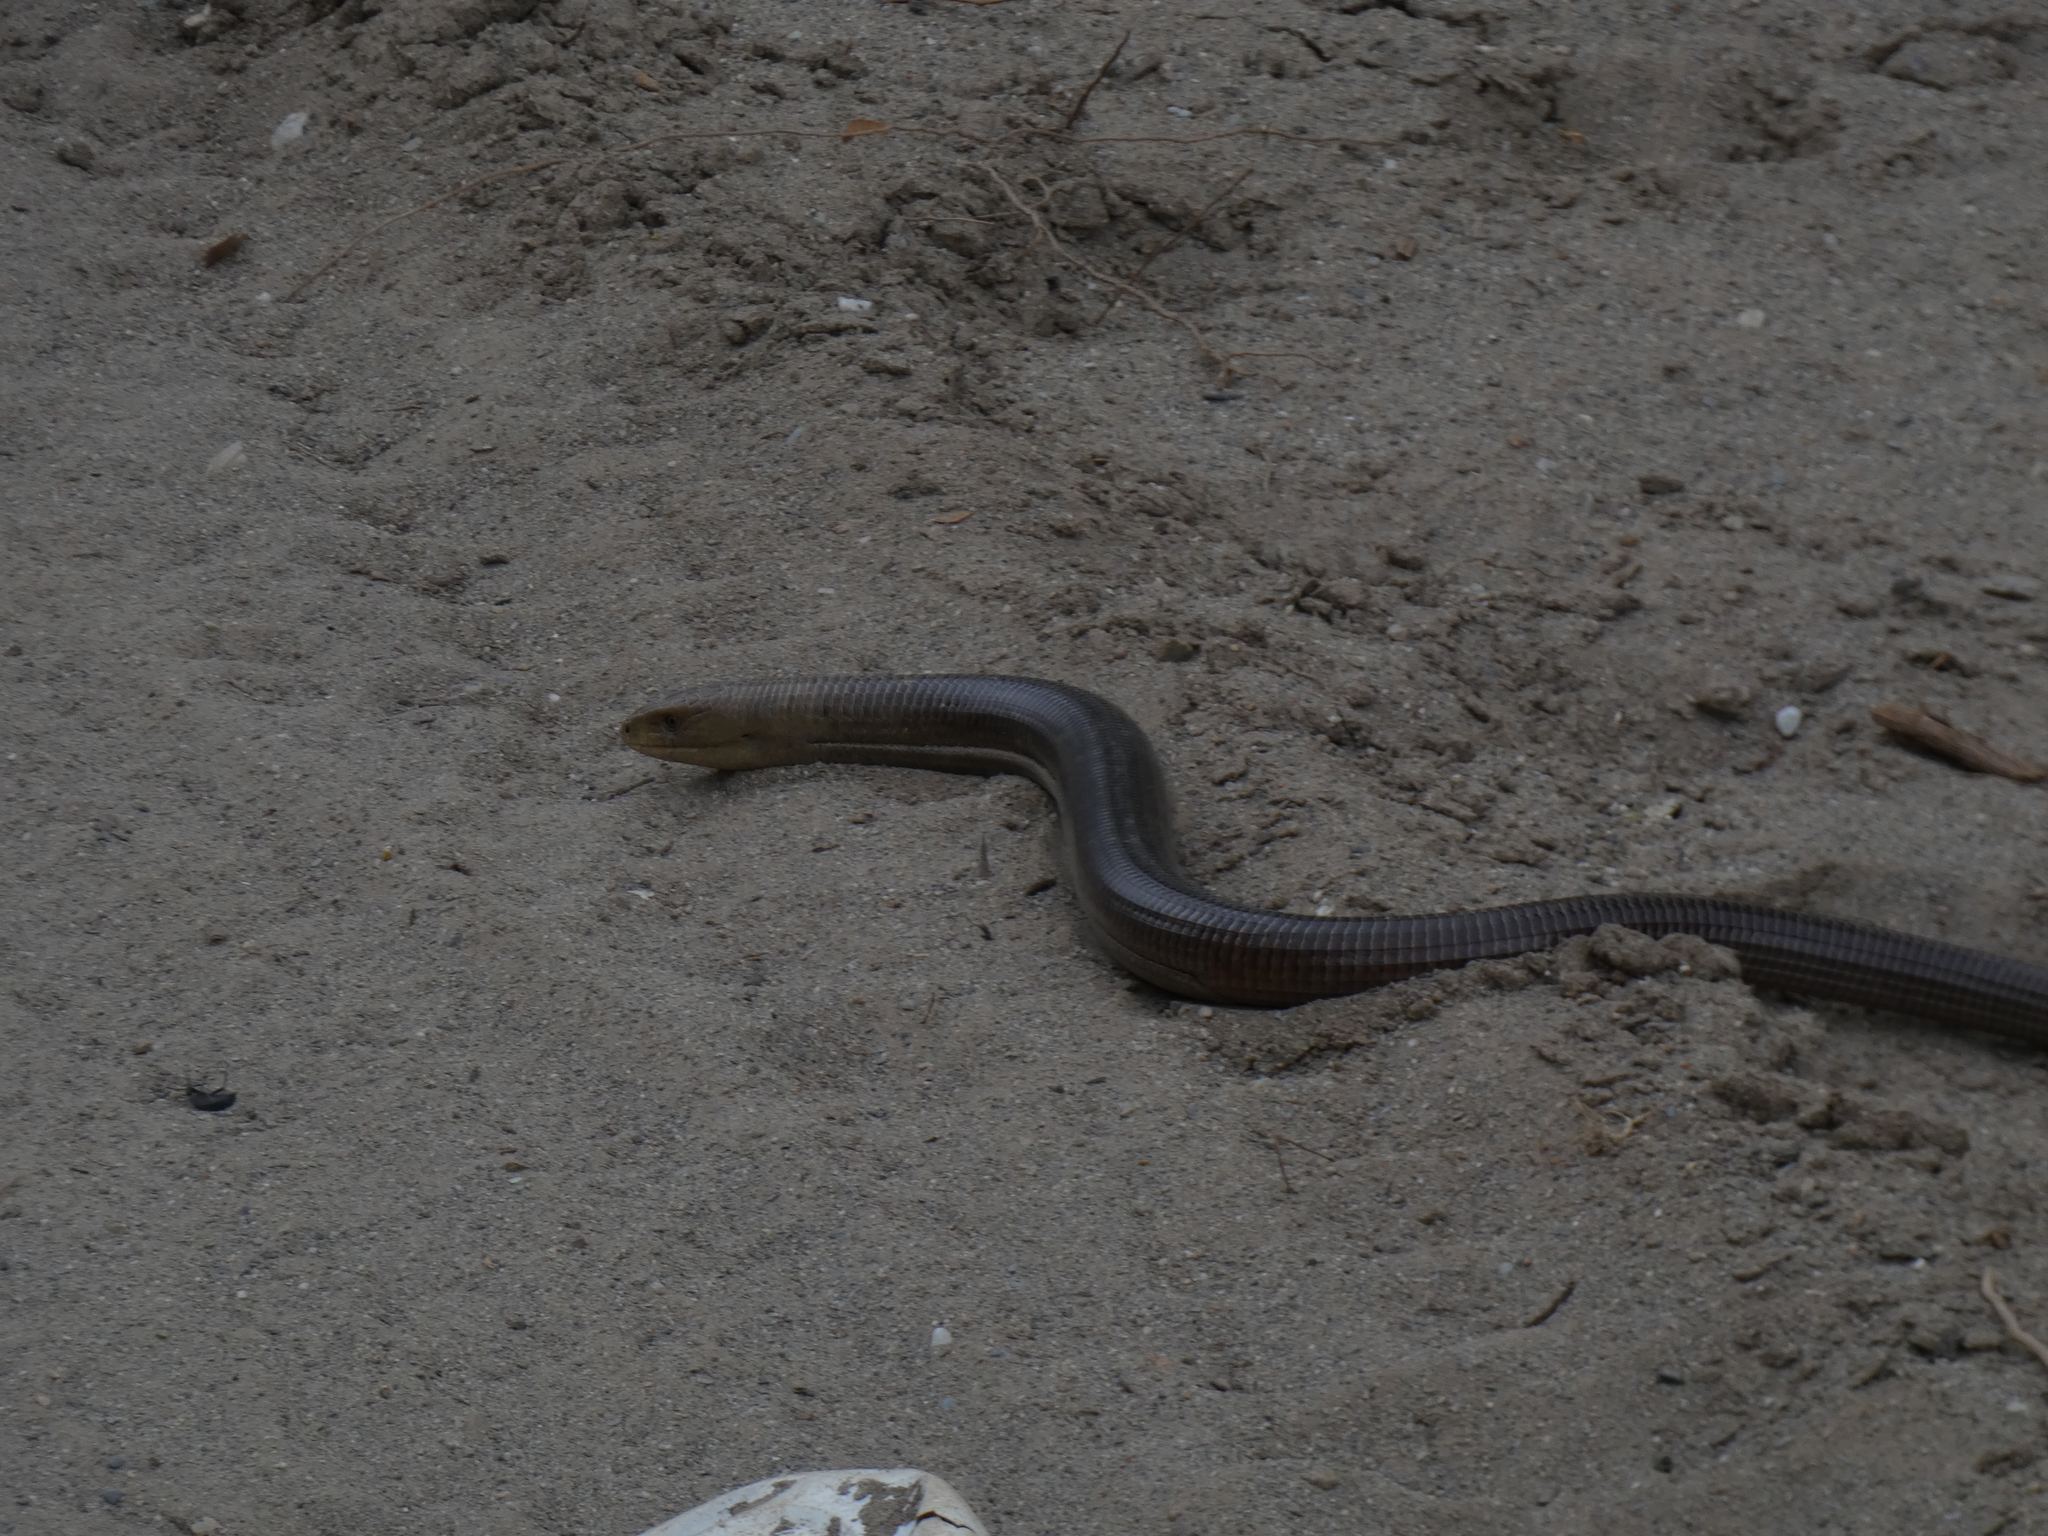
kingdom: Animalia
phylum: Chordata
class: Squamata
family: Anguidae
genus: Pseudopus
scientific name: Pseudopus apodus
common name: European glass lizard
